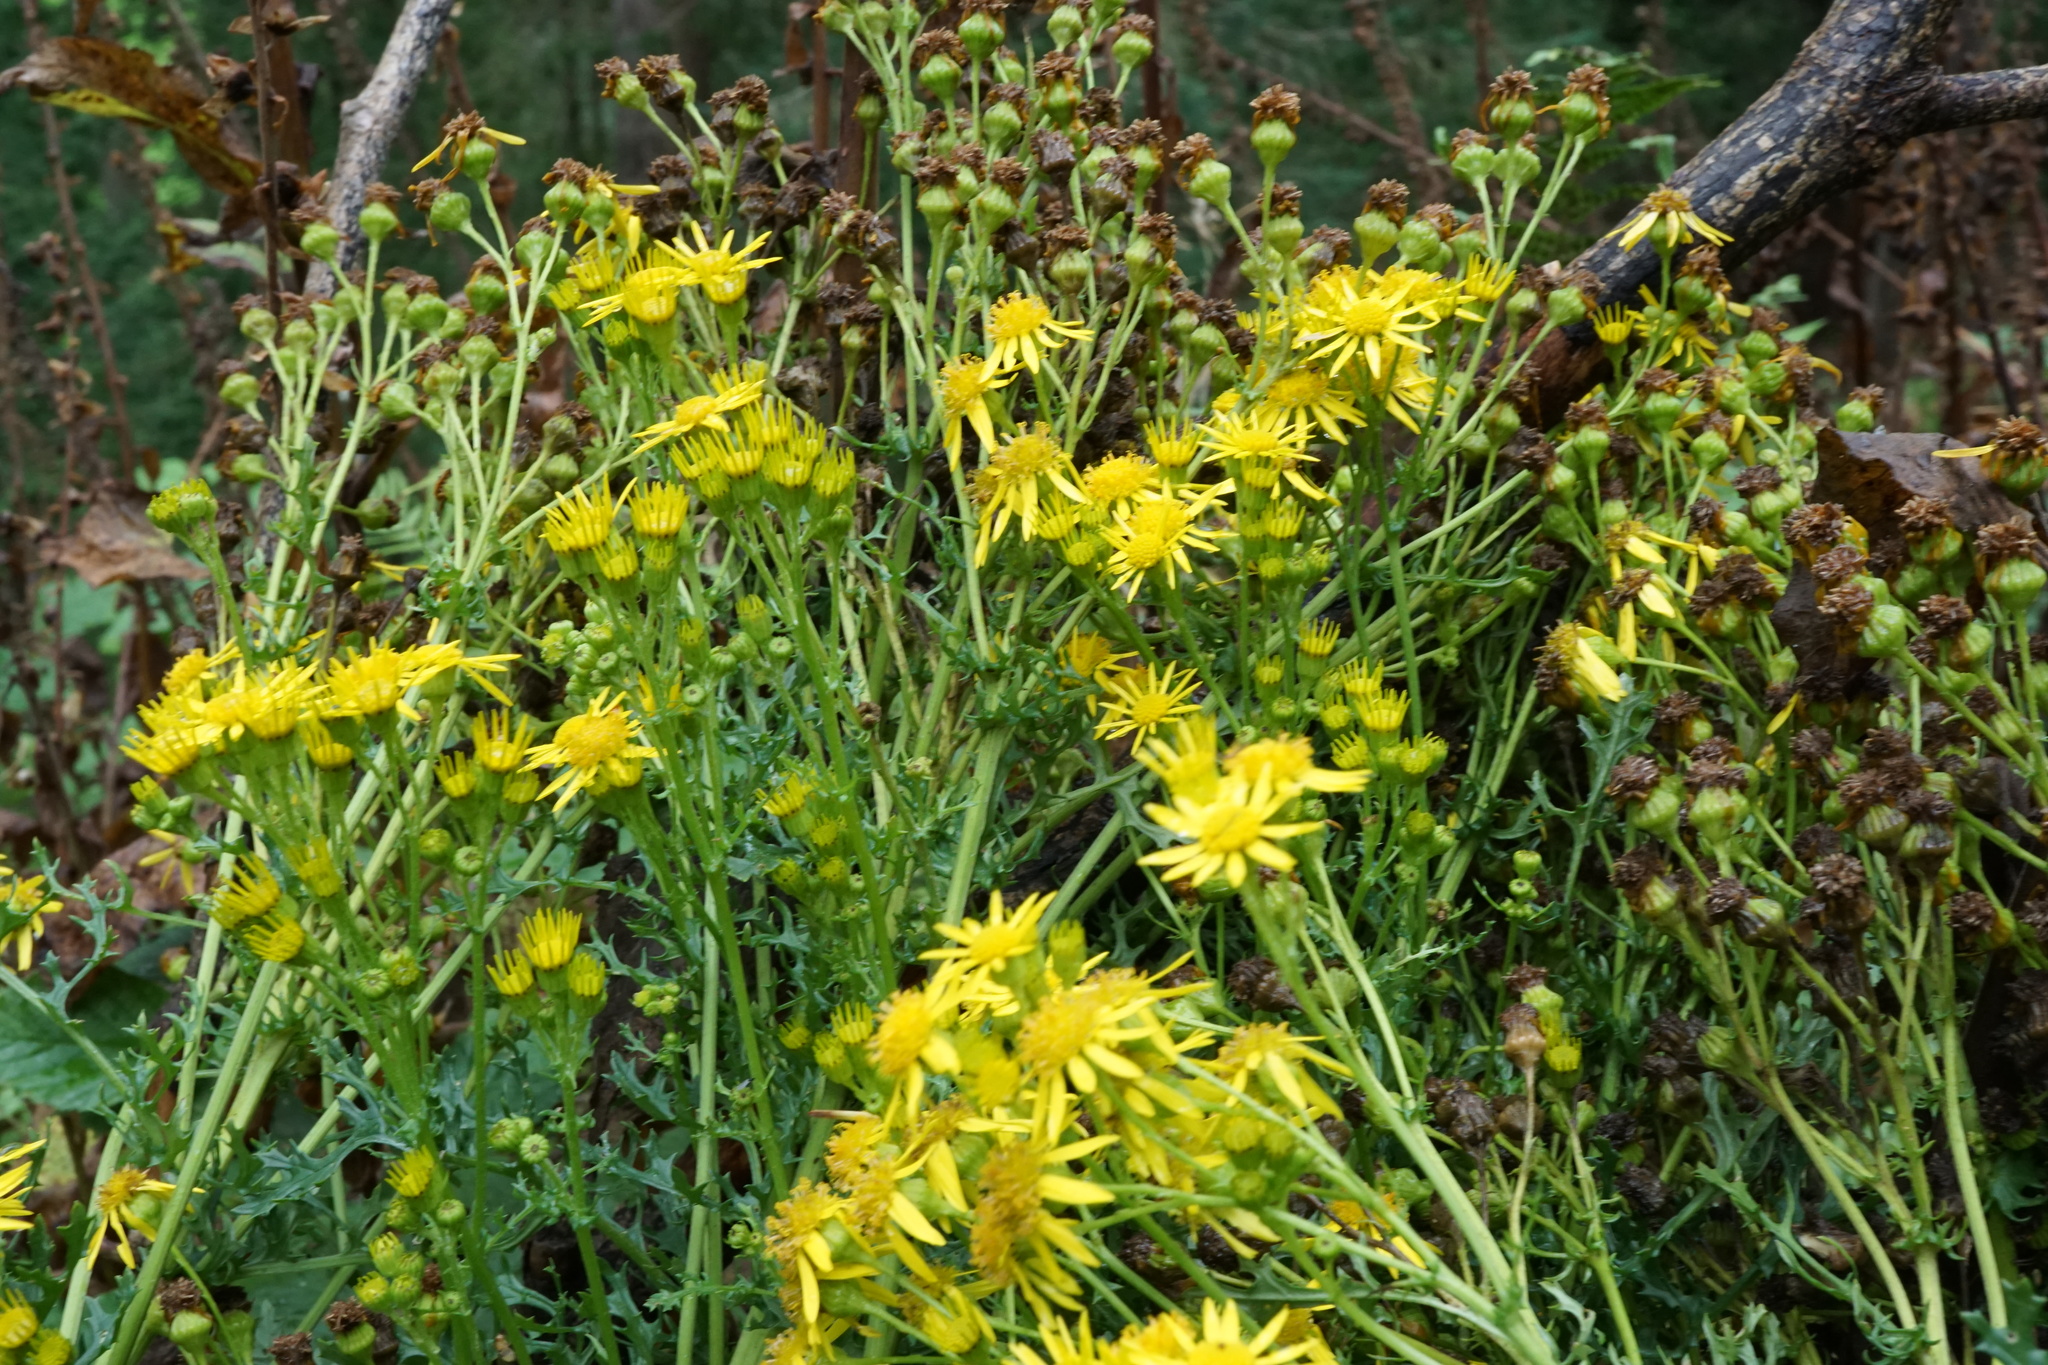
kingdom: Plantae
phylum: Tracheophyta
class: Magnoliopsida
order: Asterales
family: Asteraceae
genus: Jacobaea
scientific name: Jacobaea vulgaris
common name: Stinking willie
